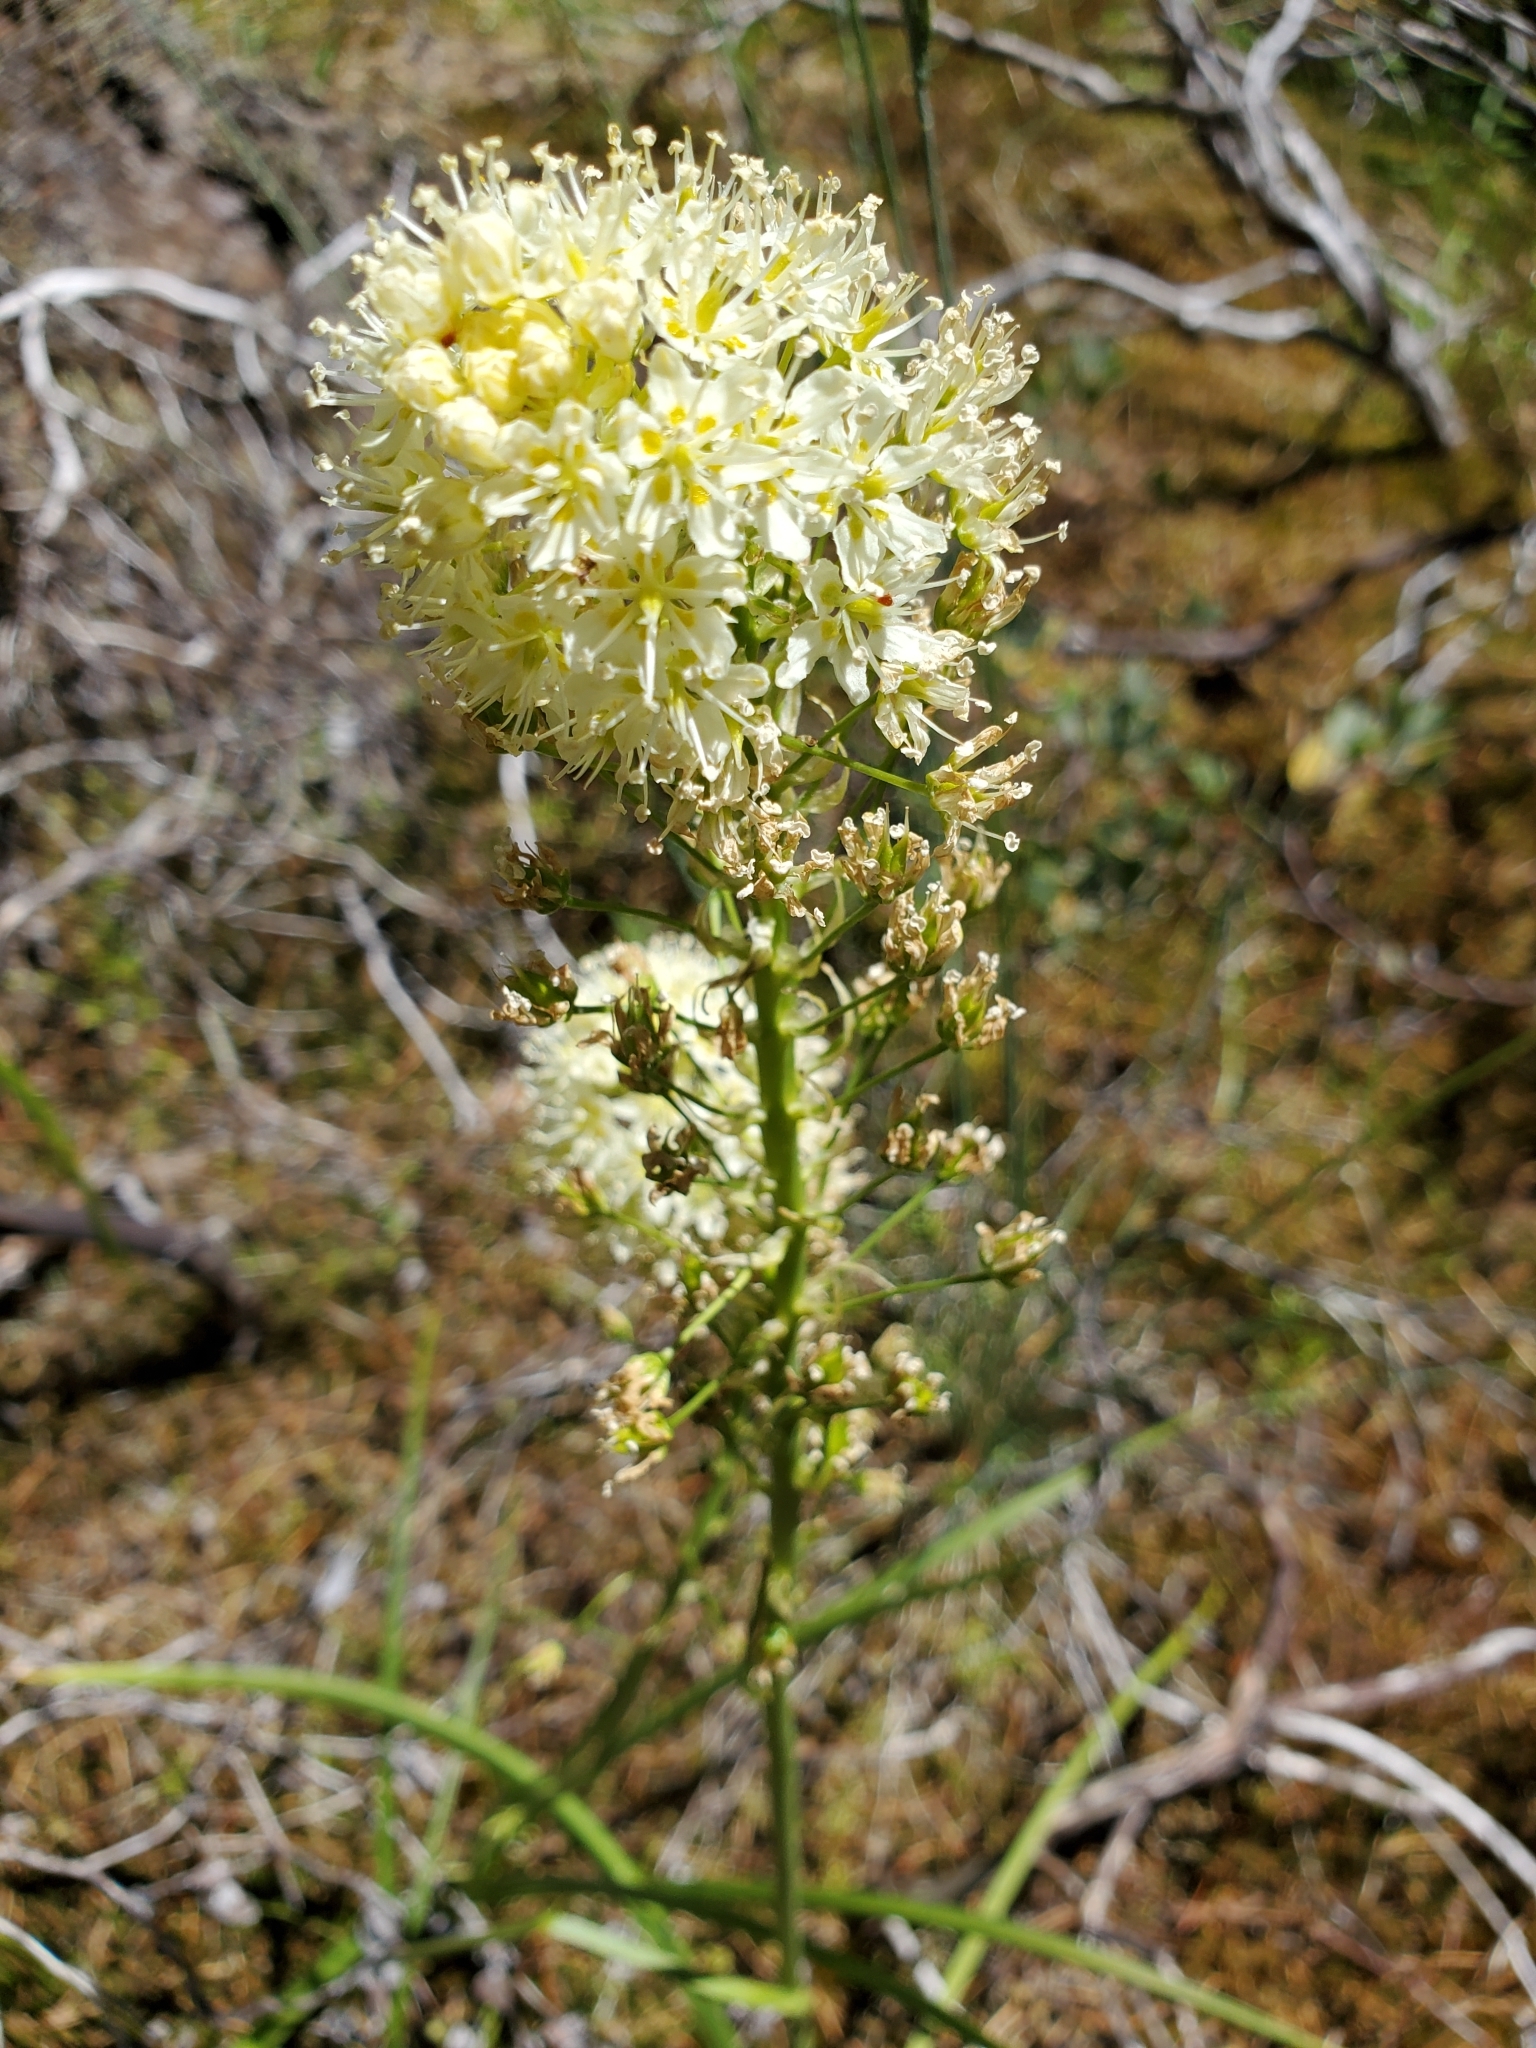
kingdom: Plantae
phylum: Tracheophyta
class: Liliopsida
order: Liliales
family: Melanthiaceae
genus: Toxicoscordion
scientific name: Toxicoscordion venenosum
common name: Meadow death camas
